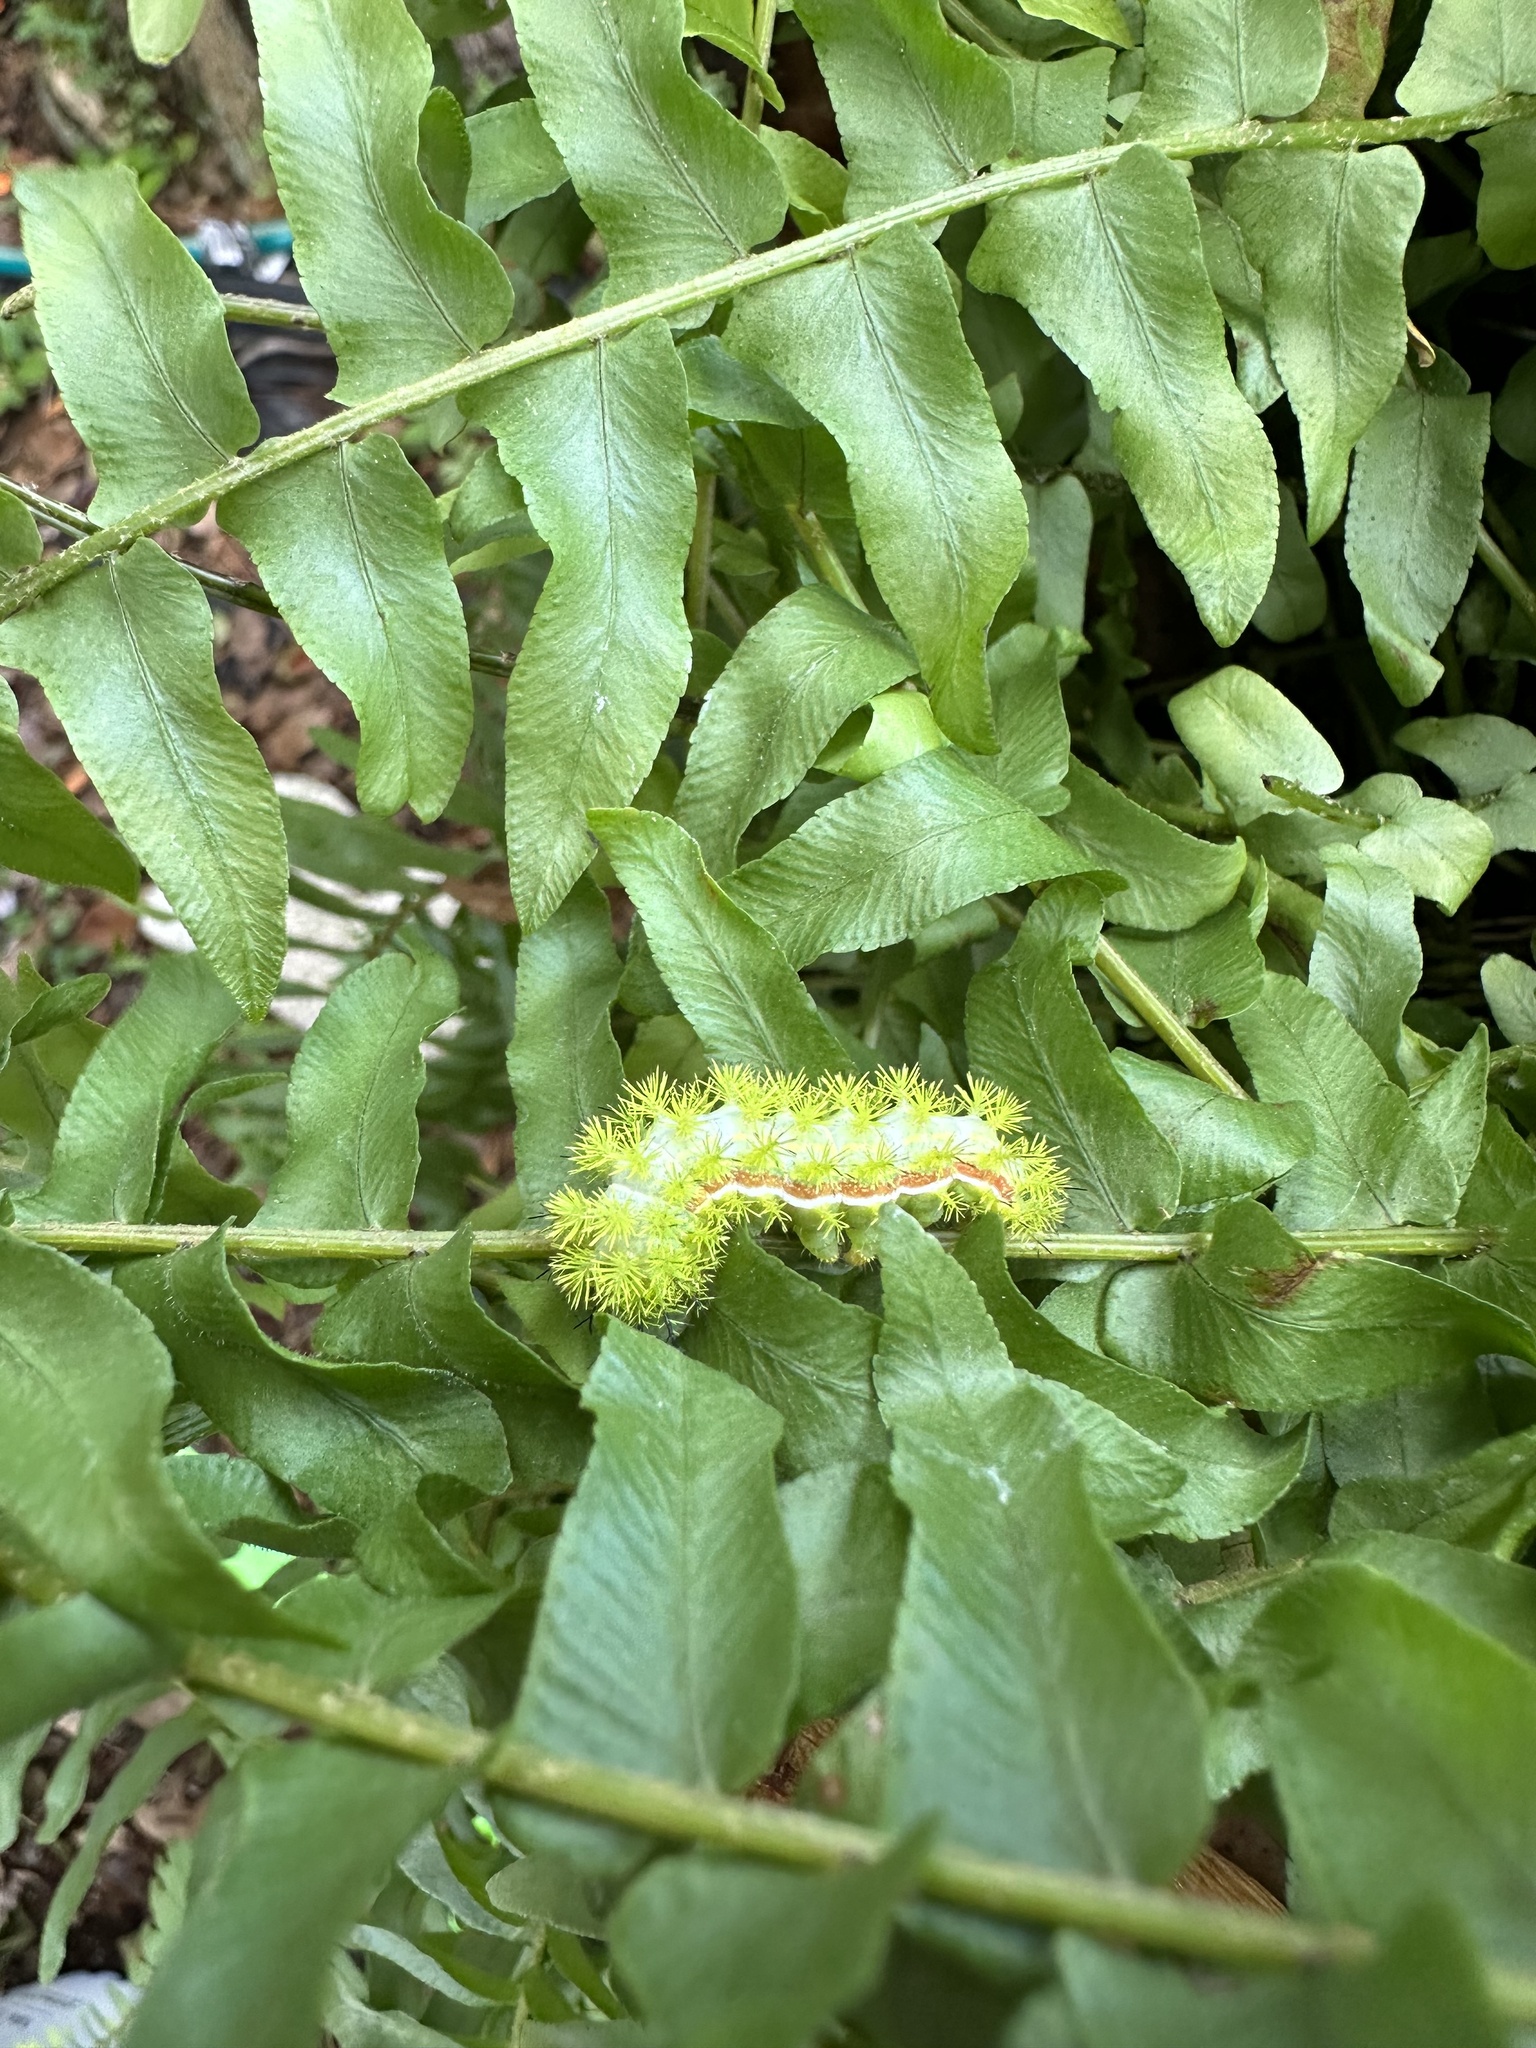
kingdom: Animalia
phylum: Arthropoda
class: Insecta
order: Lepidoptera
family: Saturniidae
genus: Automeris
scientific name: Automeris io
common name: Io moth
